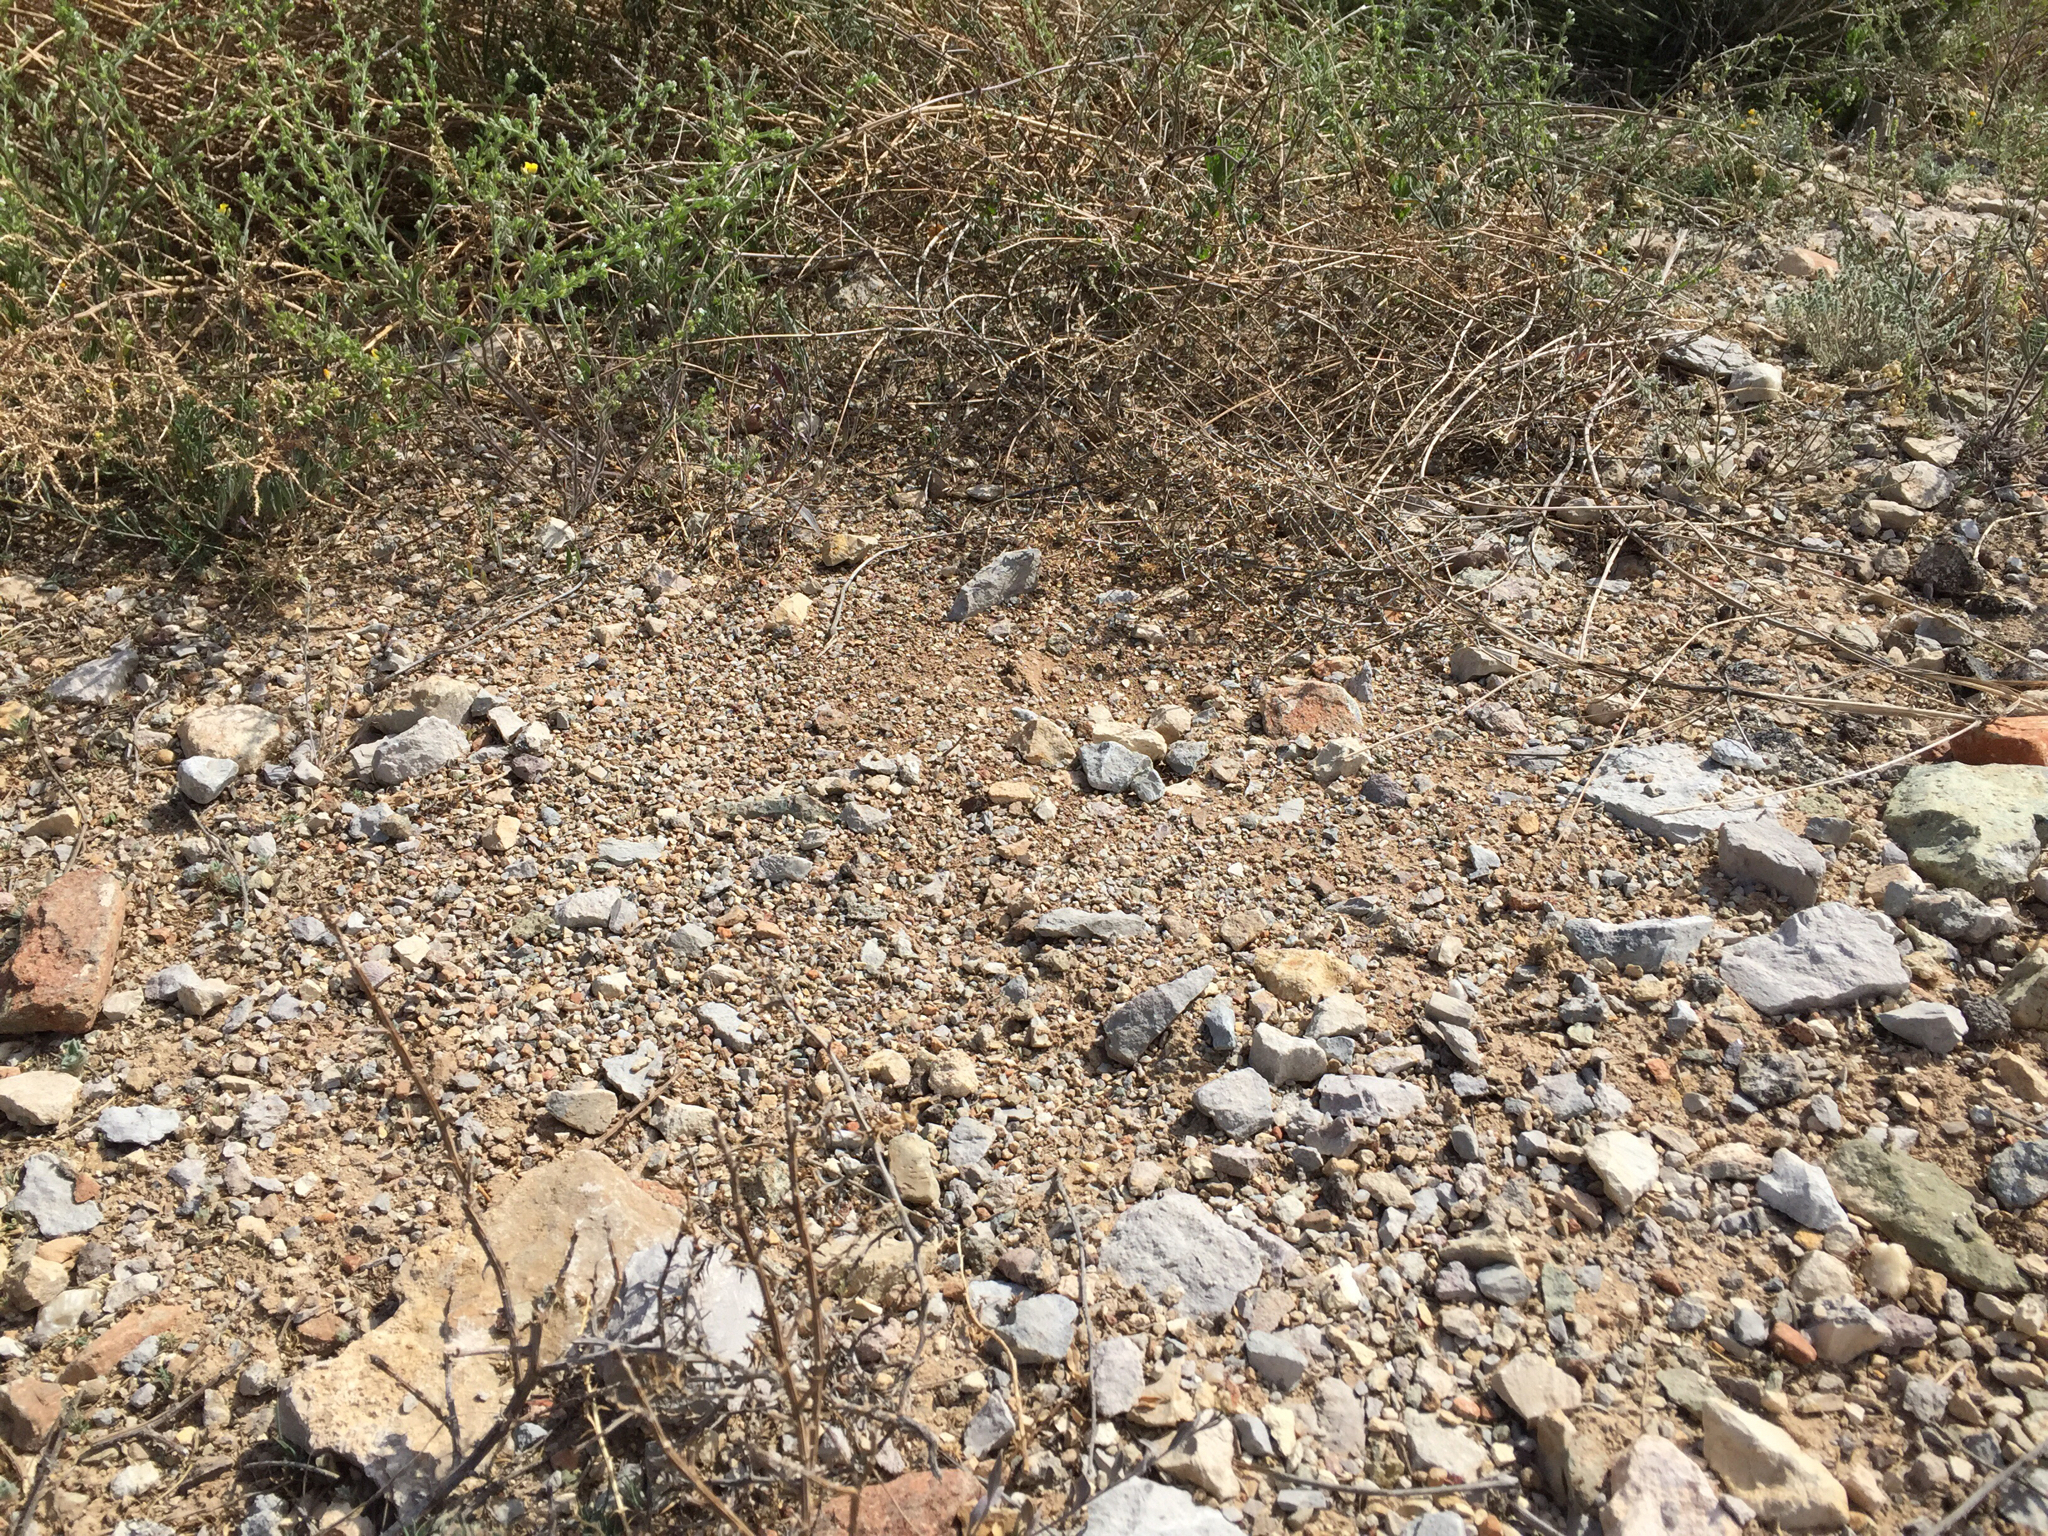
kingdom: Animalia
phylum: Arthropoda
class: Insecta
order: Hymenoptera
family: Formicidae
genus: Pogonomyrmex
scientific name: Pogonomyrmex rugosus
